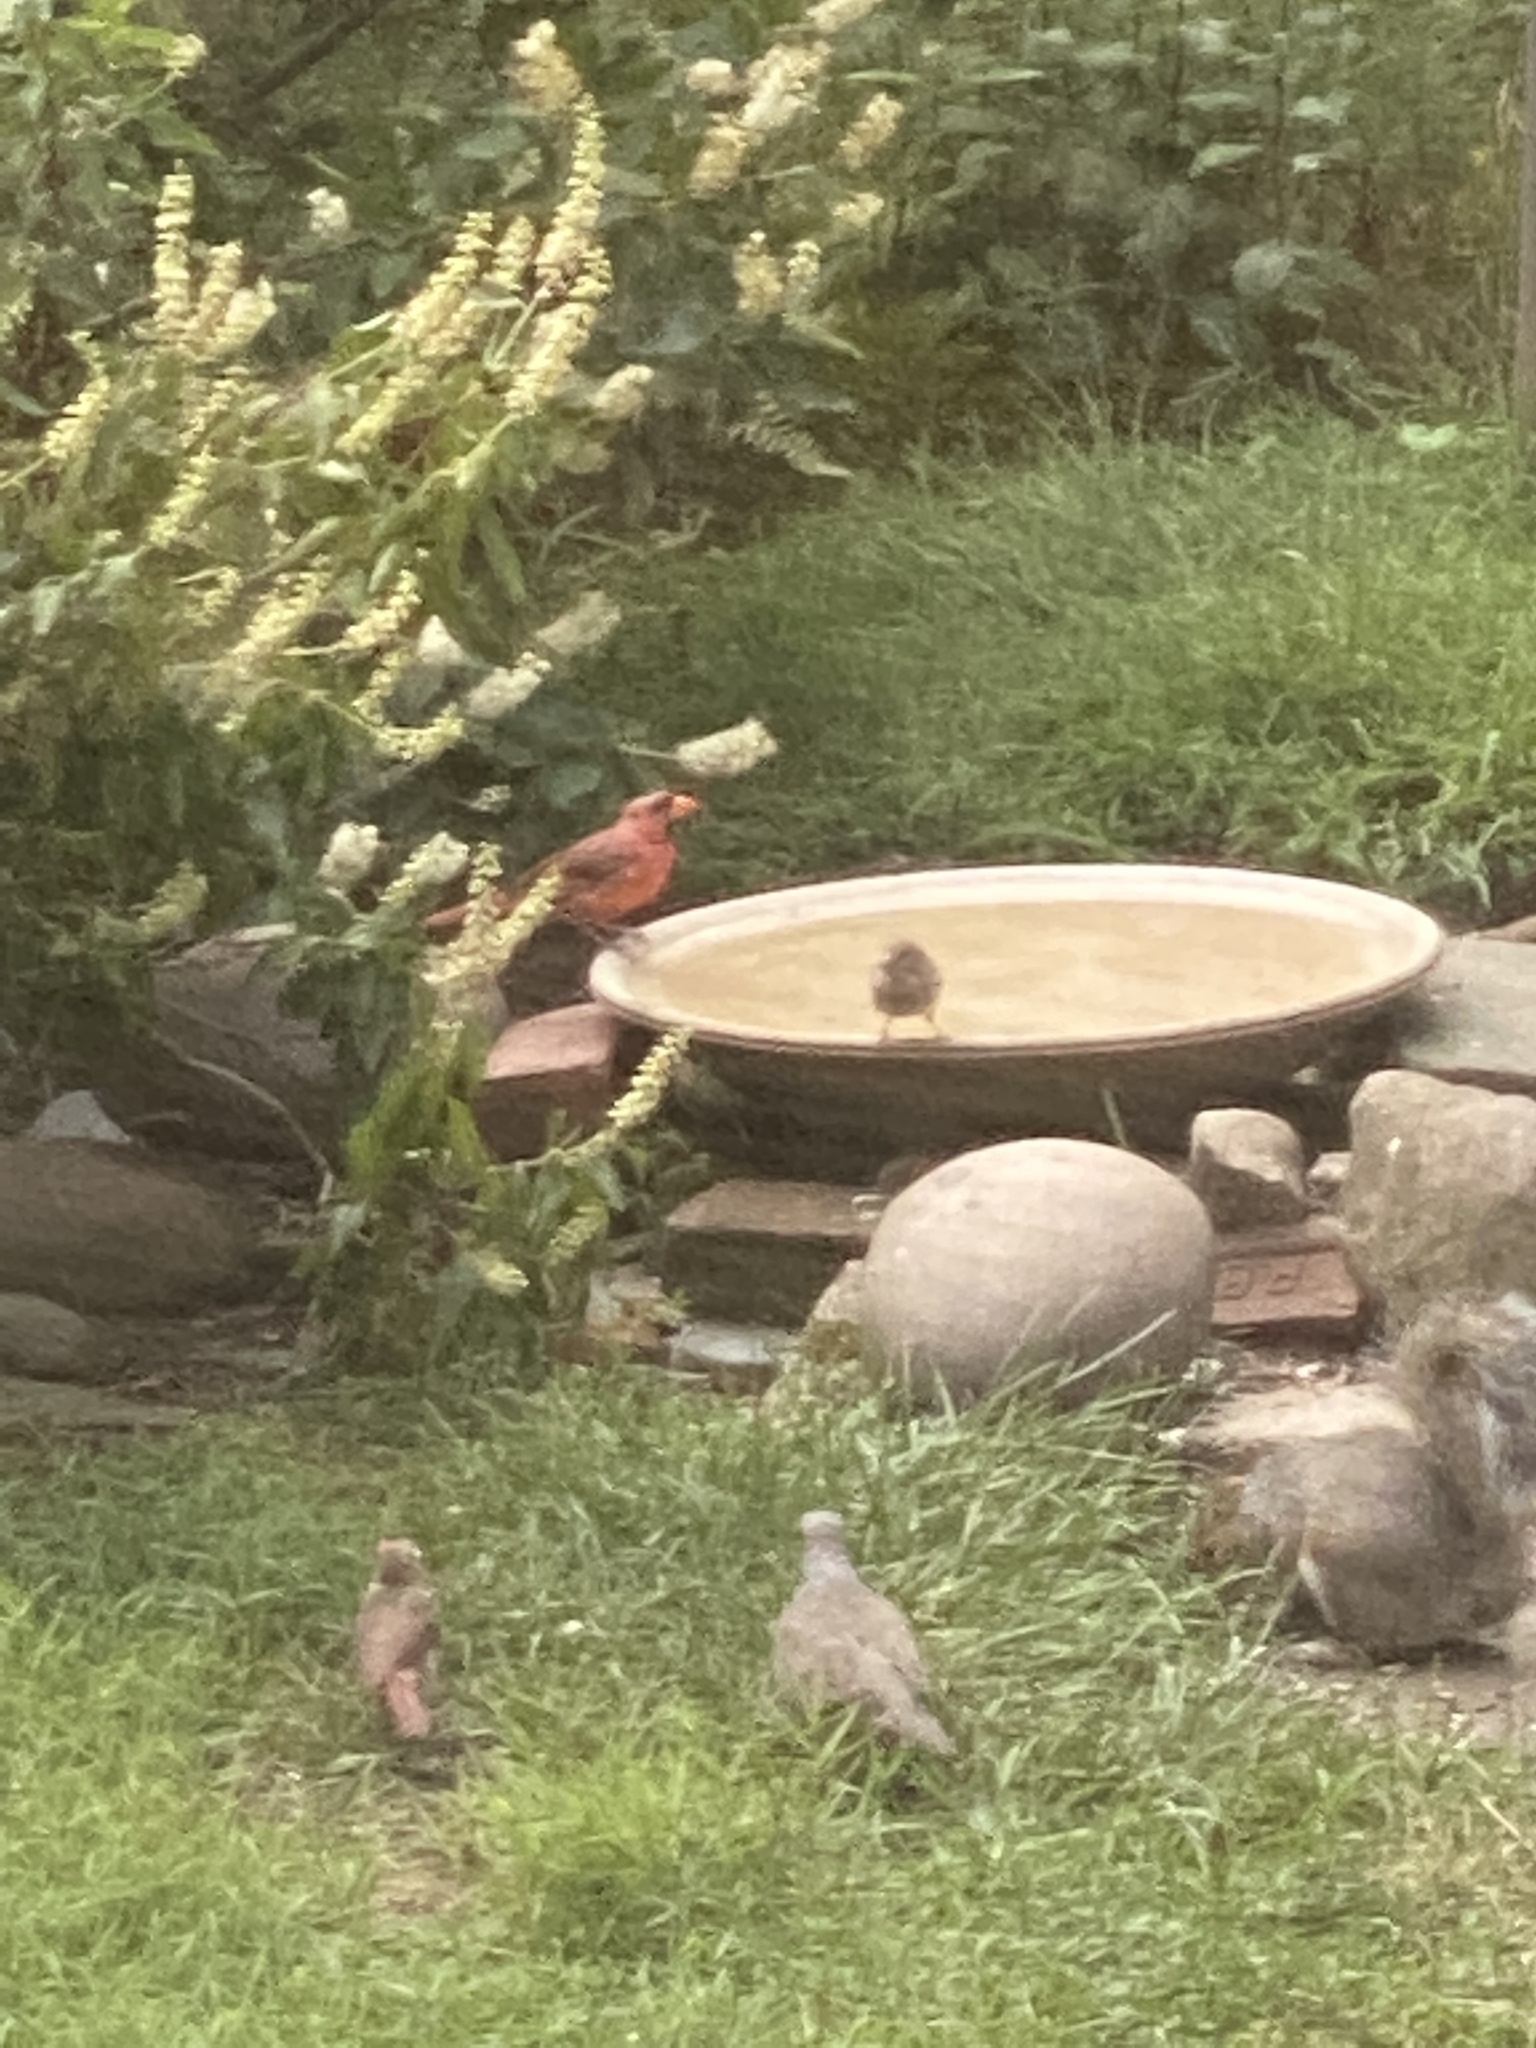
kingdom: Animalia
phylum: Chordata
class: Aves
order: Passeriformes
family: Cardinalidae
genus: Cardinalis
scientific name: Cardinalis cardinalis
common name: Northern cardinal
